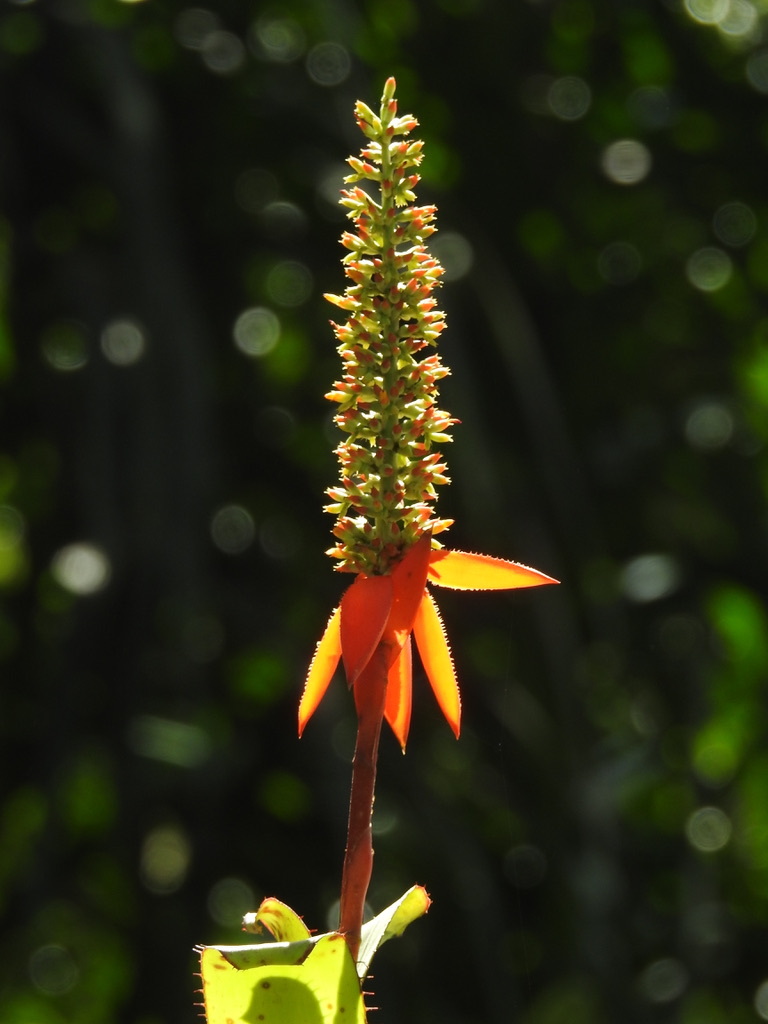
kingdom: Plantae
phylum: Tracheophyta
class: Liliopsida
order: Poales
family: Bromeliaceae
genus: Aechmea
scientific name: Aechmea mertensii
